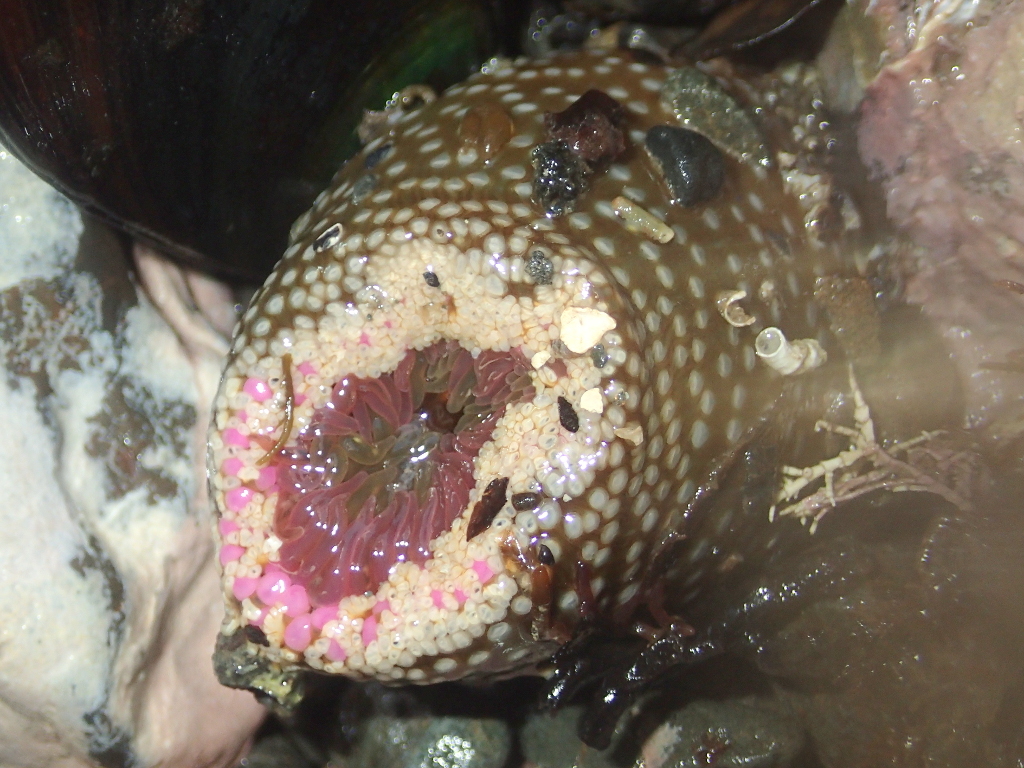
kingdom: Animalia
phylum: Cnidaria
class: Anthozoa
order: Actiniaria
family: Actiniidae
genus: Oulactis
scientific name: Oulactis muscosa
